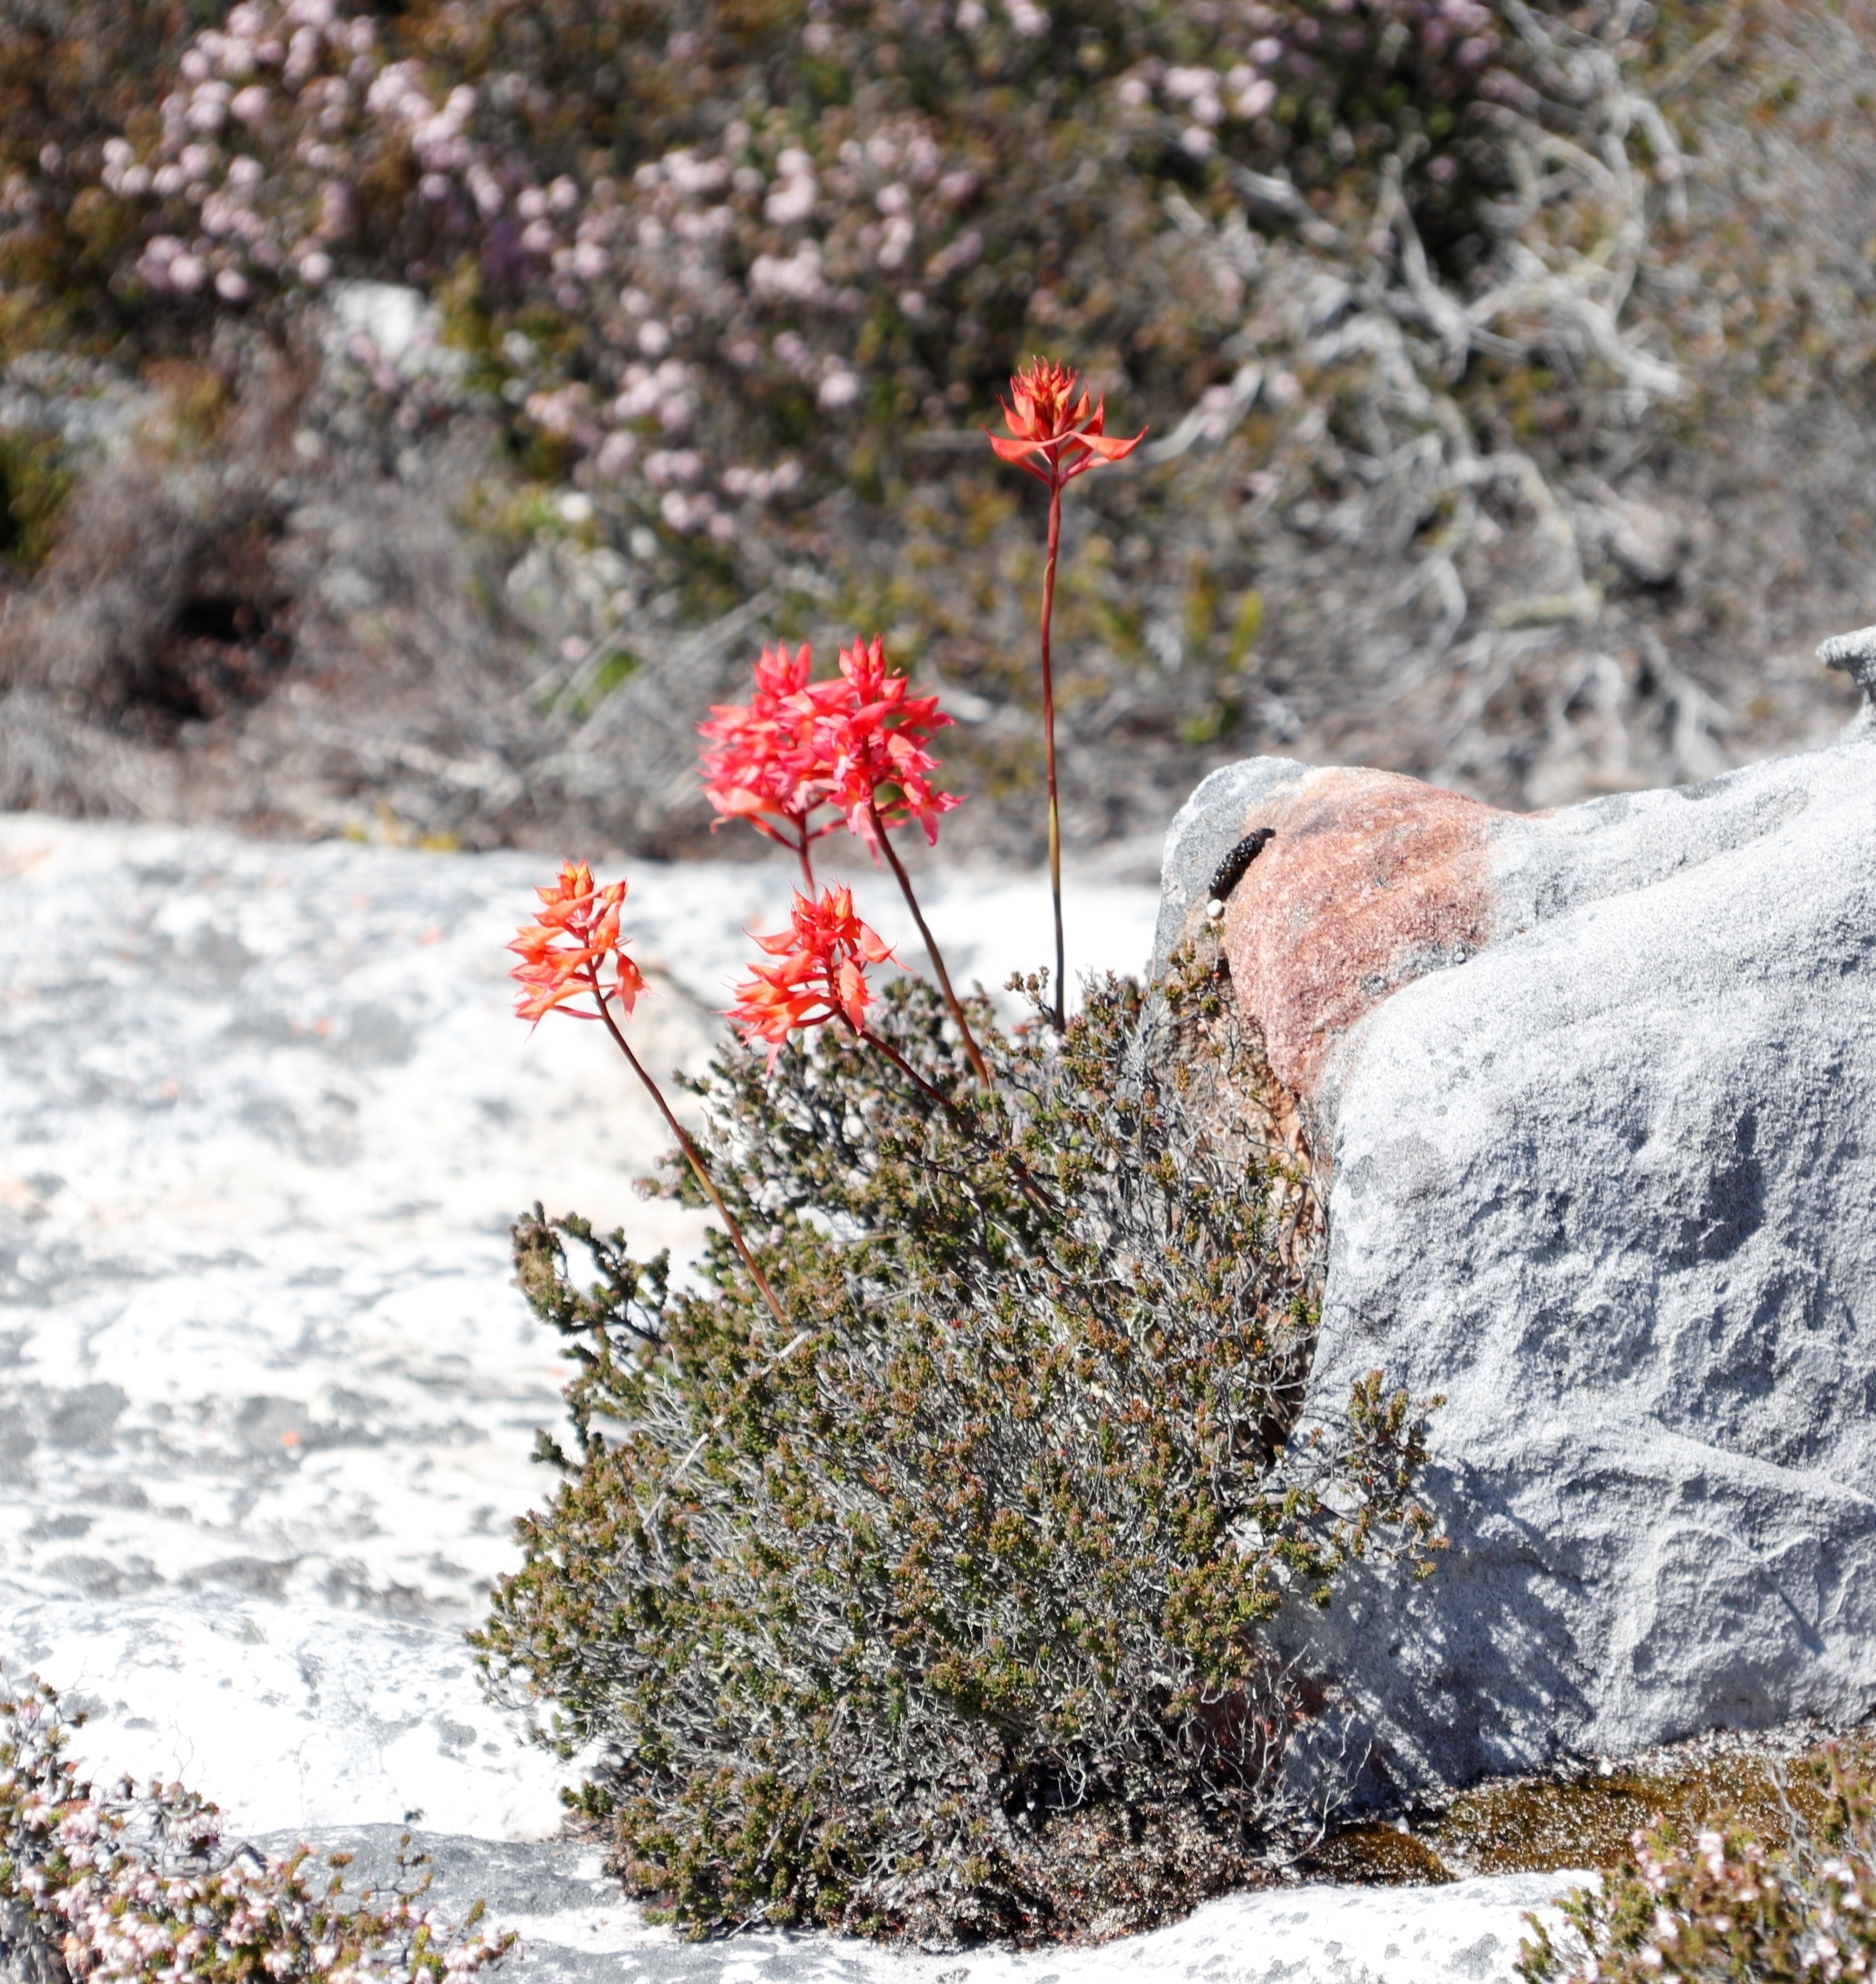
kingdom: Plantae
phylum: Tracheophyta
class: Liliopsida
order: Asparagales
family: Orchidaceae
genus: Disa
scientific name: Disa ferruginea
